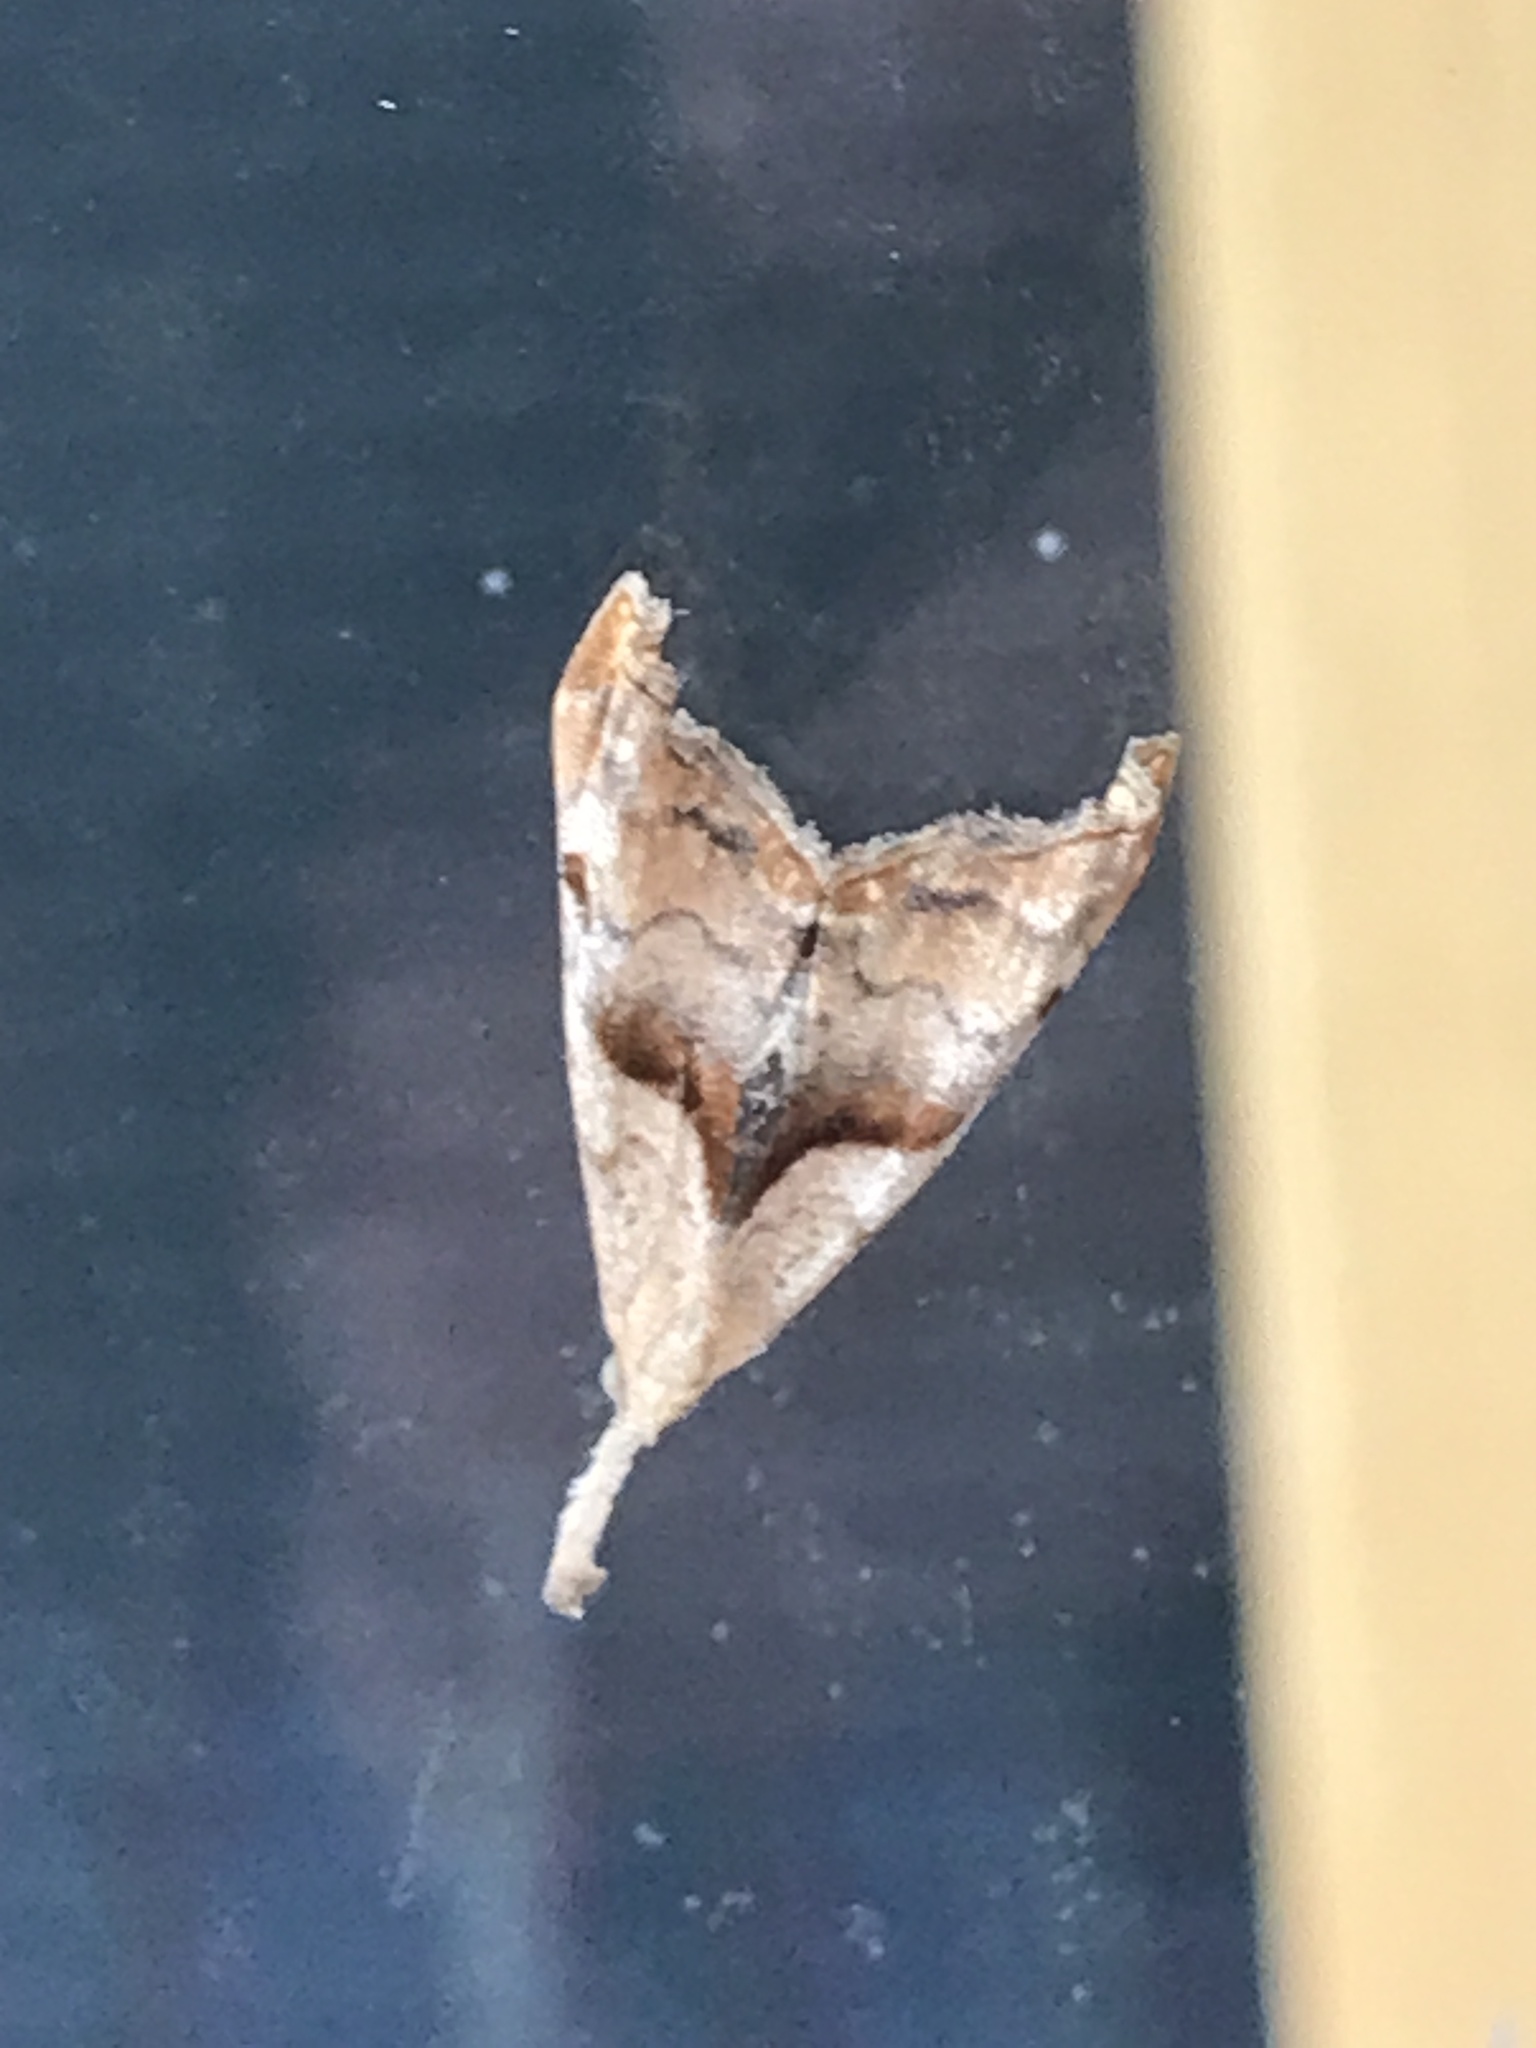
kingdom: Animalia
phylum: Arthropoda
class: Insecta
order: Lepidoptera
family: Erebidae
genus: Palthis
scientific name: Palthis angulalis
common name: Dark-spotted palthis moth
